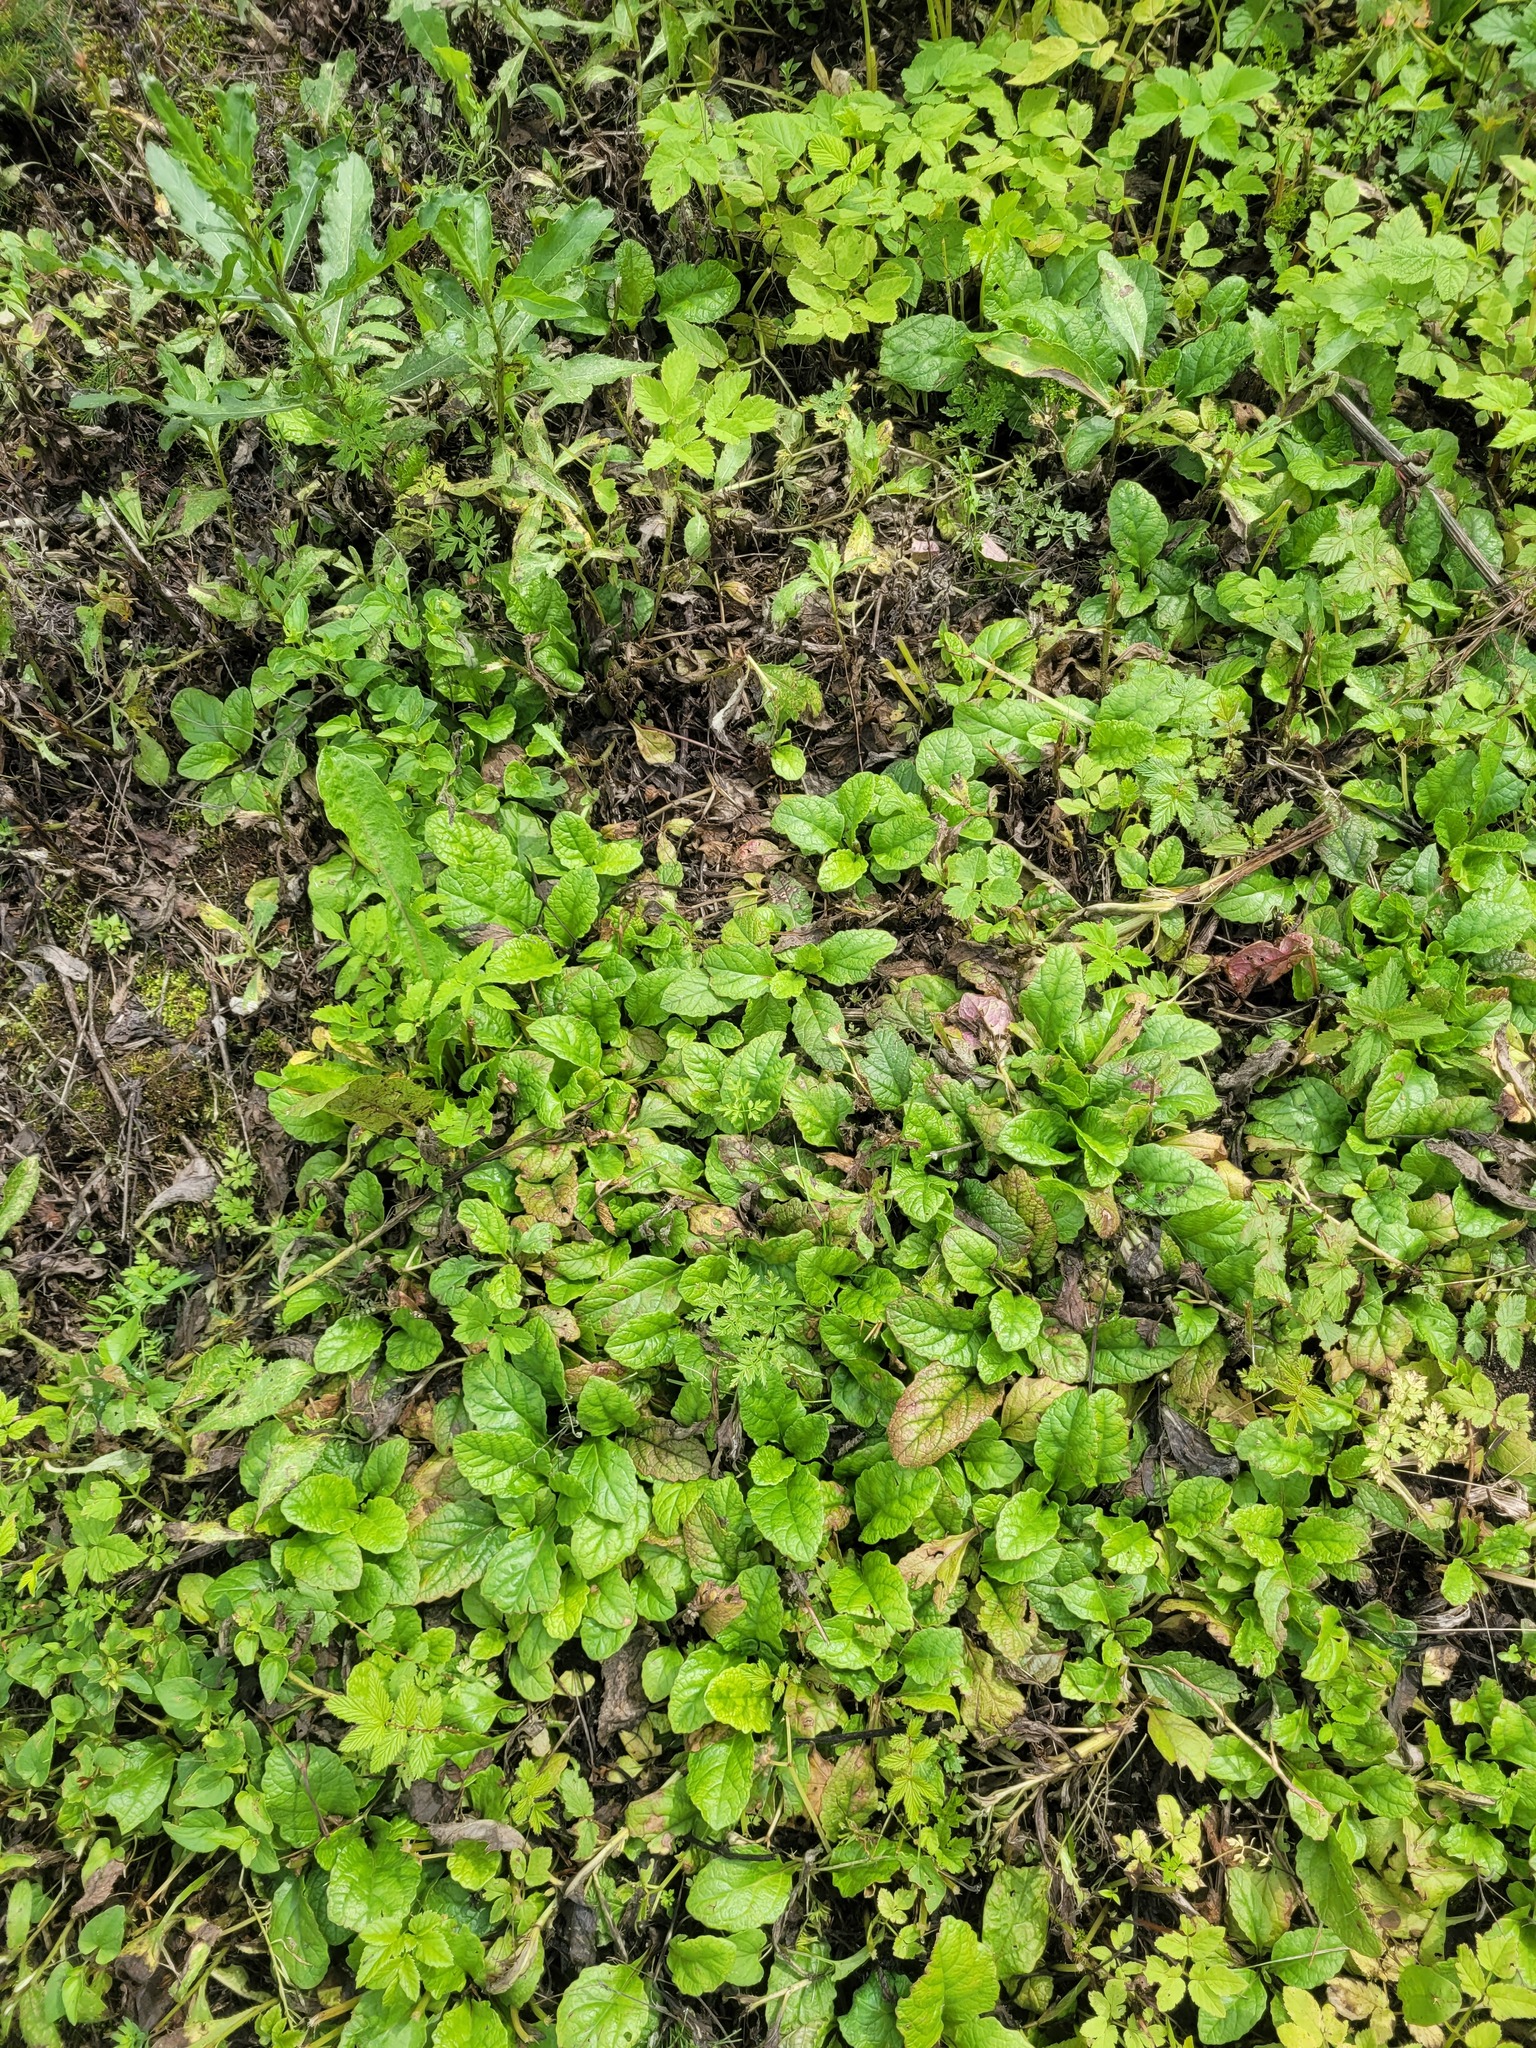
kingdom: Plantae
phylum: Tracheophyta
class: Magnoliopsida
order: Lamiales
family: Lamiaceae
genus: Ajuga
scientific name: Ajuga reptans
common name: Bugle
